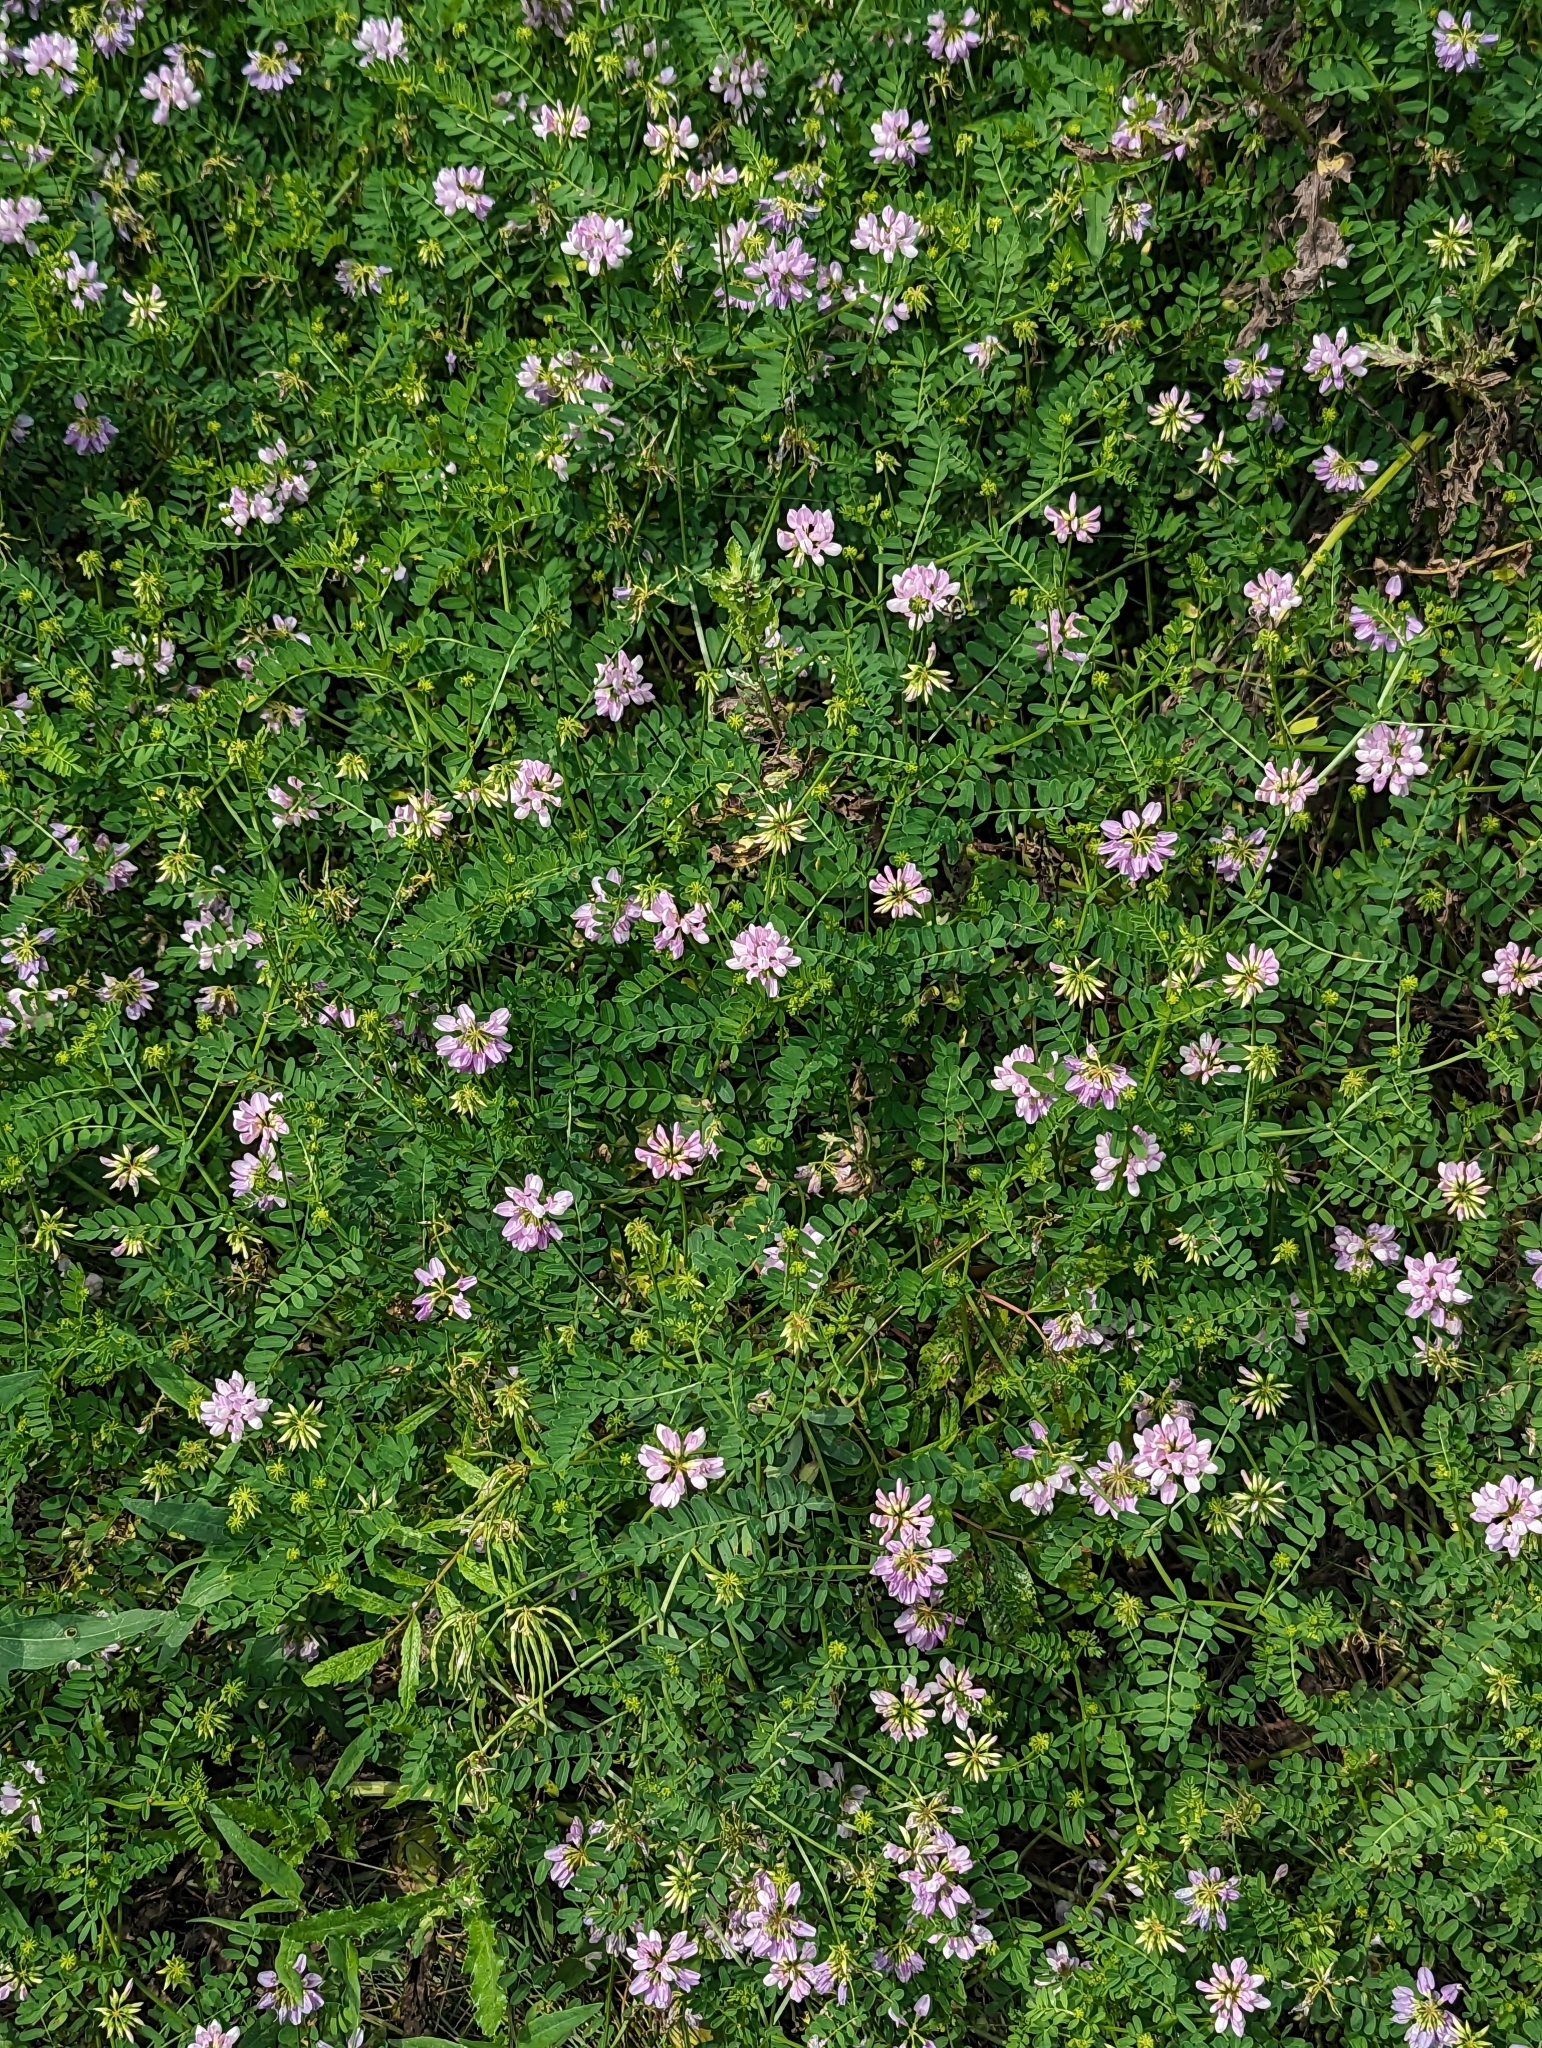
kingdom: Plantae
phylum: Tracheophyta
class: Magnoliopsida
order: Fabales
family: Fabaceae
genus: Coronilla
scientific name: Coronilla varia
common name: Crownvetch
